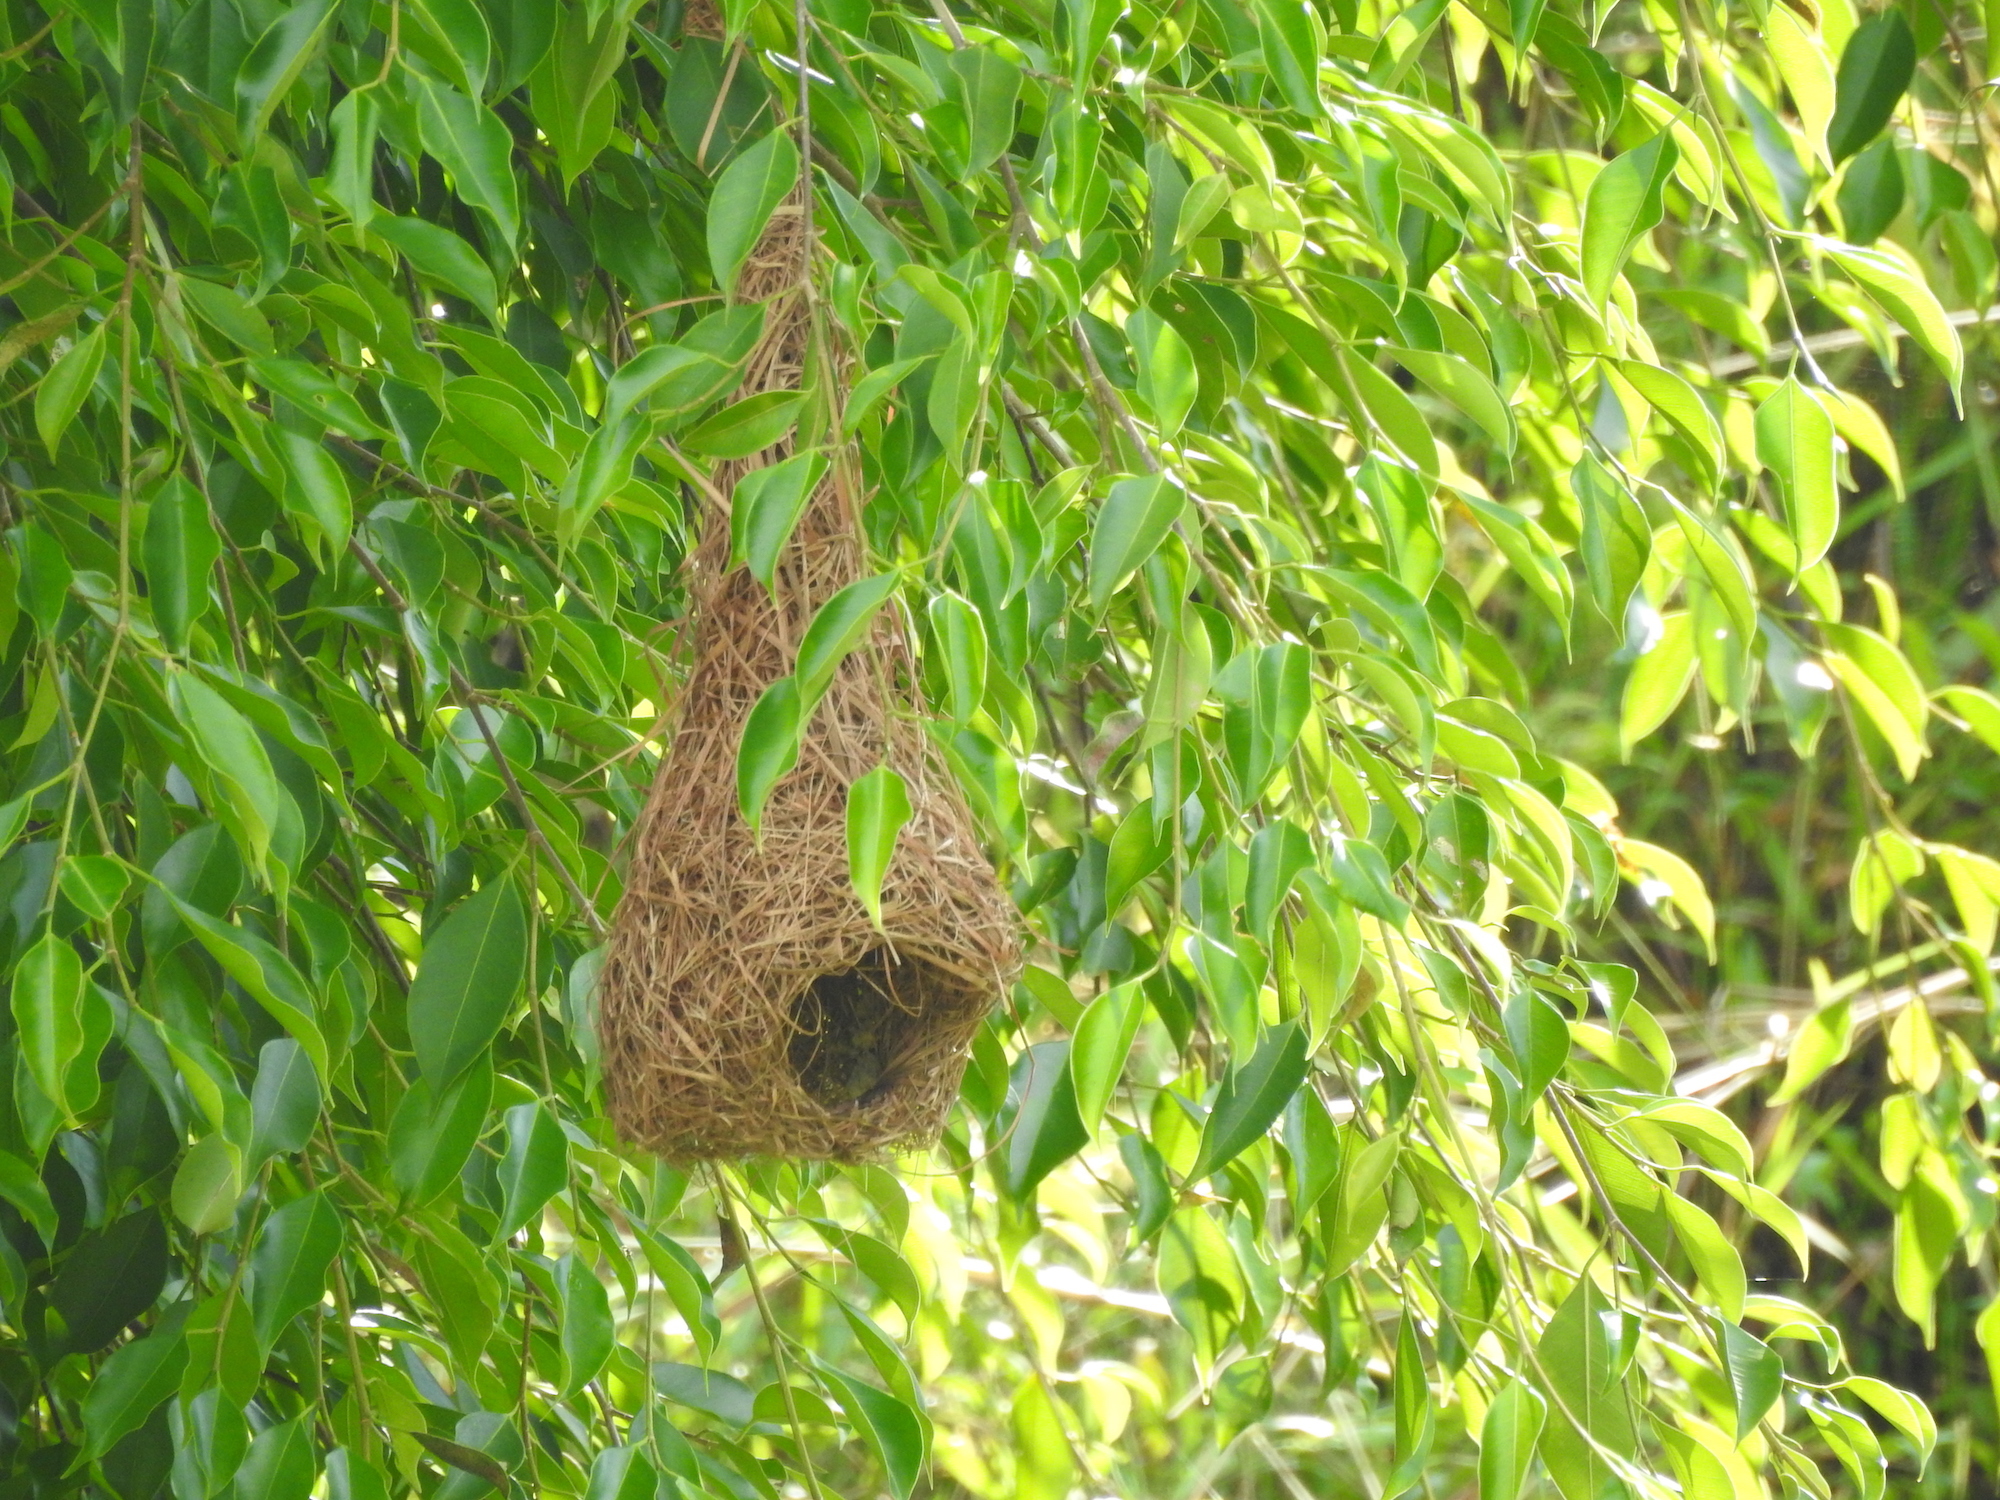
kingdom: Animalia
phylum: Chordata
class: Aves
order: Passeriformes
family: Ploceidae
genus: Ploceus
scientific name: Ploceus philippinus
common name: Baya weaver
